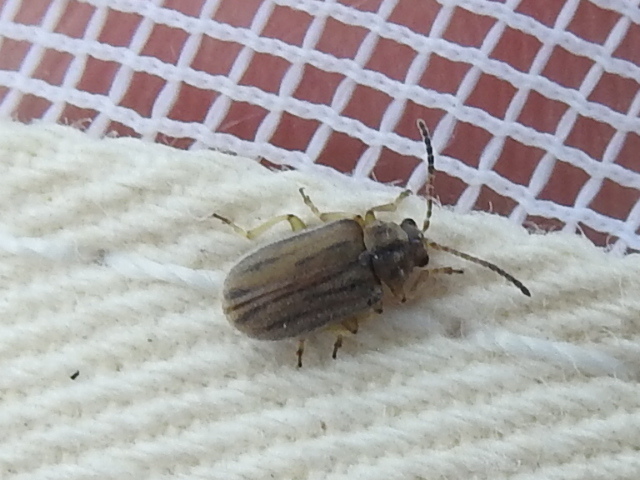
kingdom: Animalia
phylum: Arthropoda
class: Insecta
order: Coleoptera
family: Chrysomelidae
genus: Ophraella
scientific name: Ophraella communa
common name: Ragweed leaf beetle
